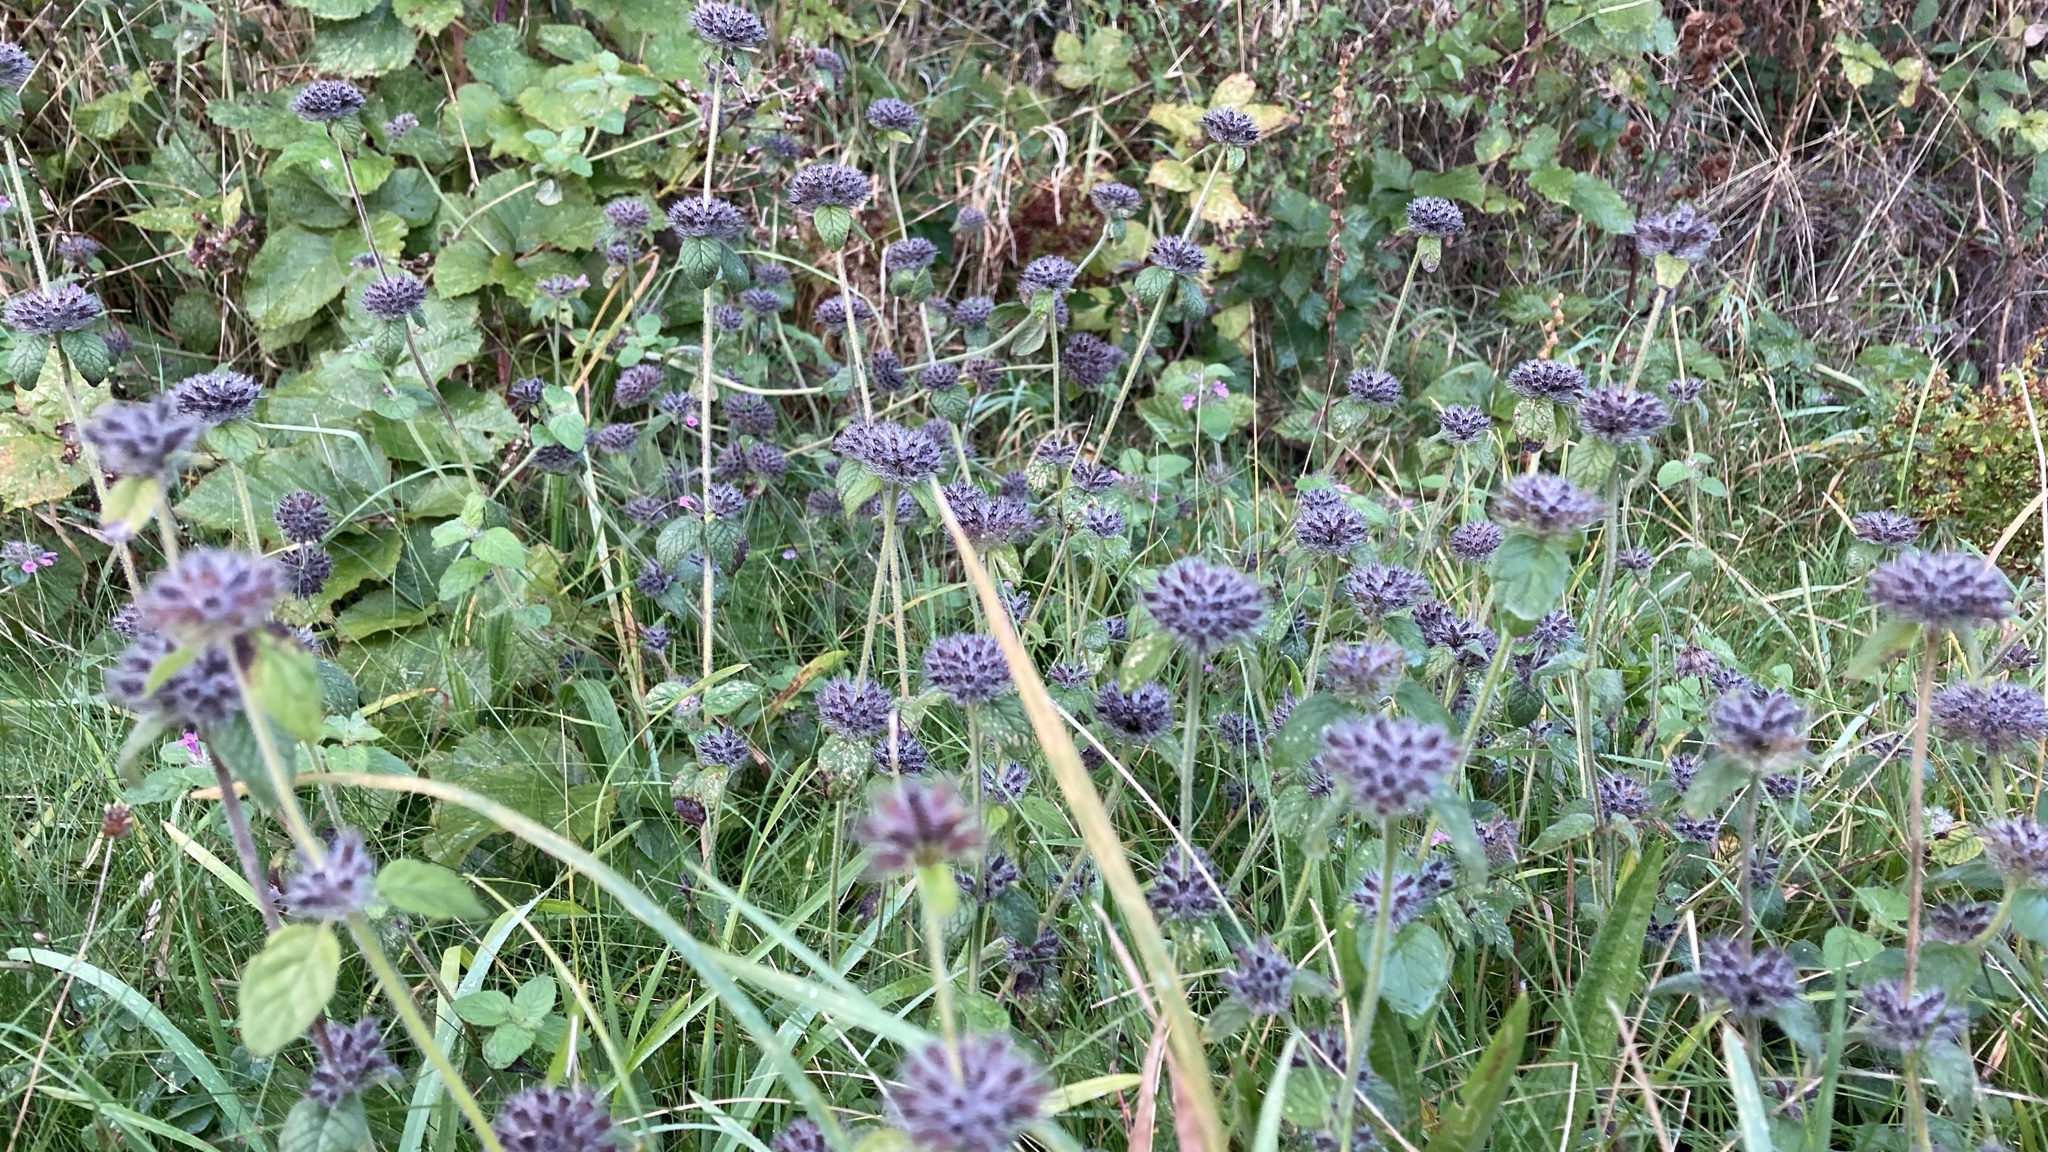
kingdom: Plantae
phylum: Tracheophyta
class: Magnoliopsida
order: Lamiales
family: Lamiaceae
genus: Clinopodium
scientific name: Clinopodium vulgare
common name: Wild basil
